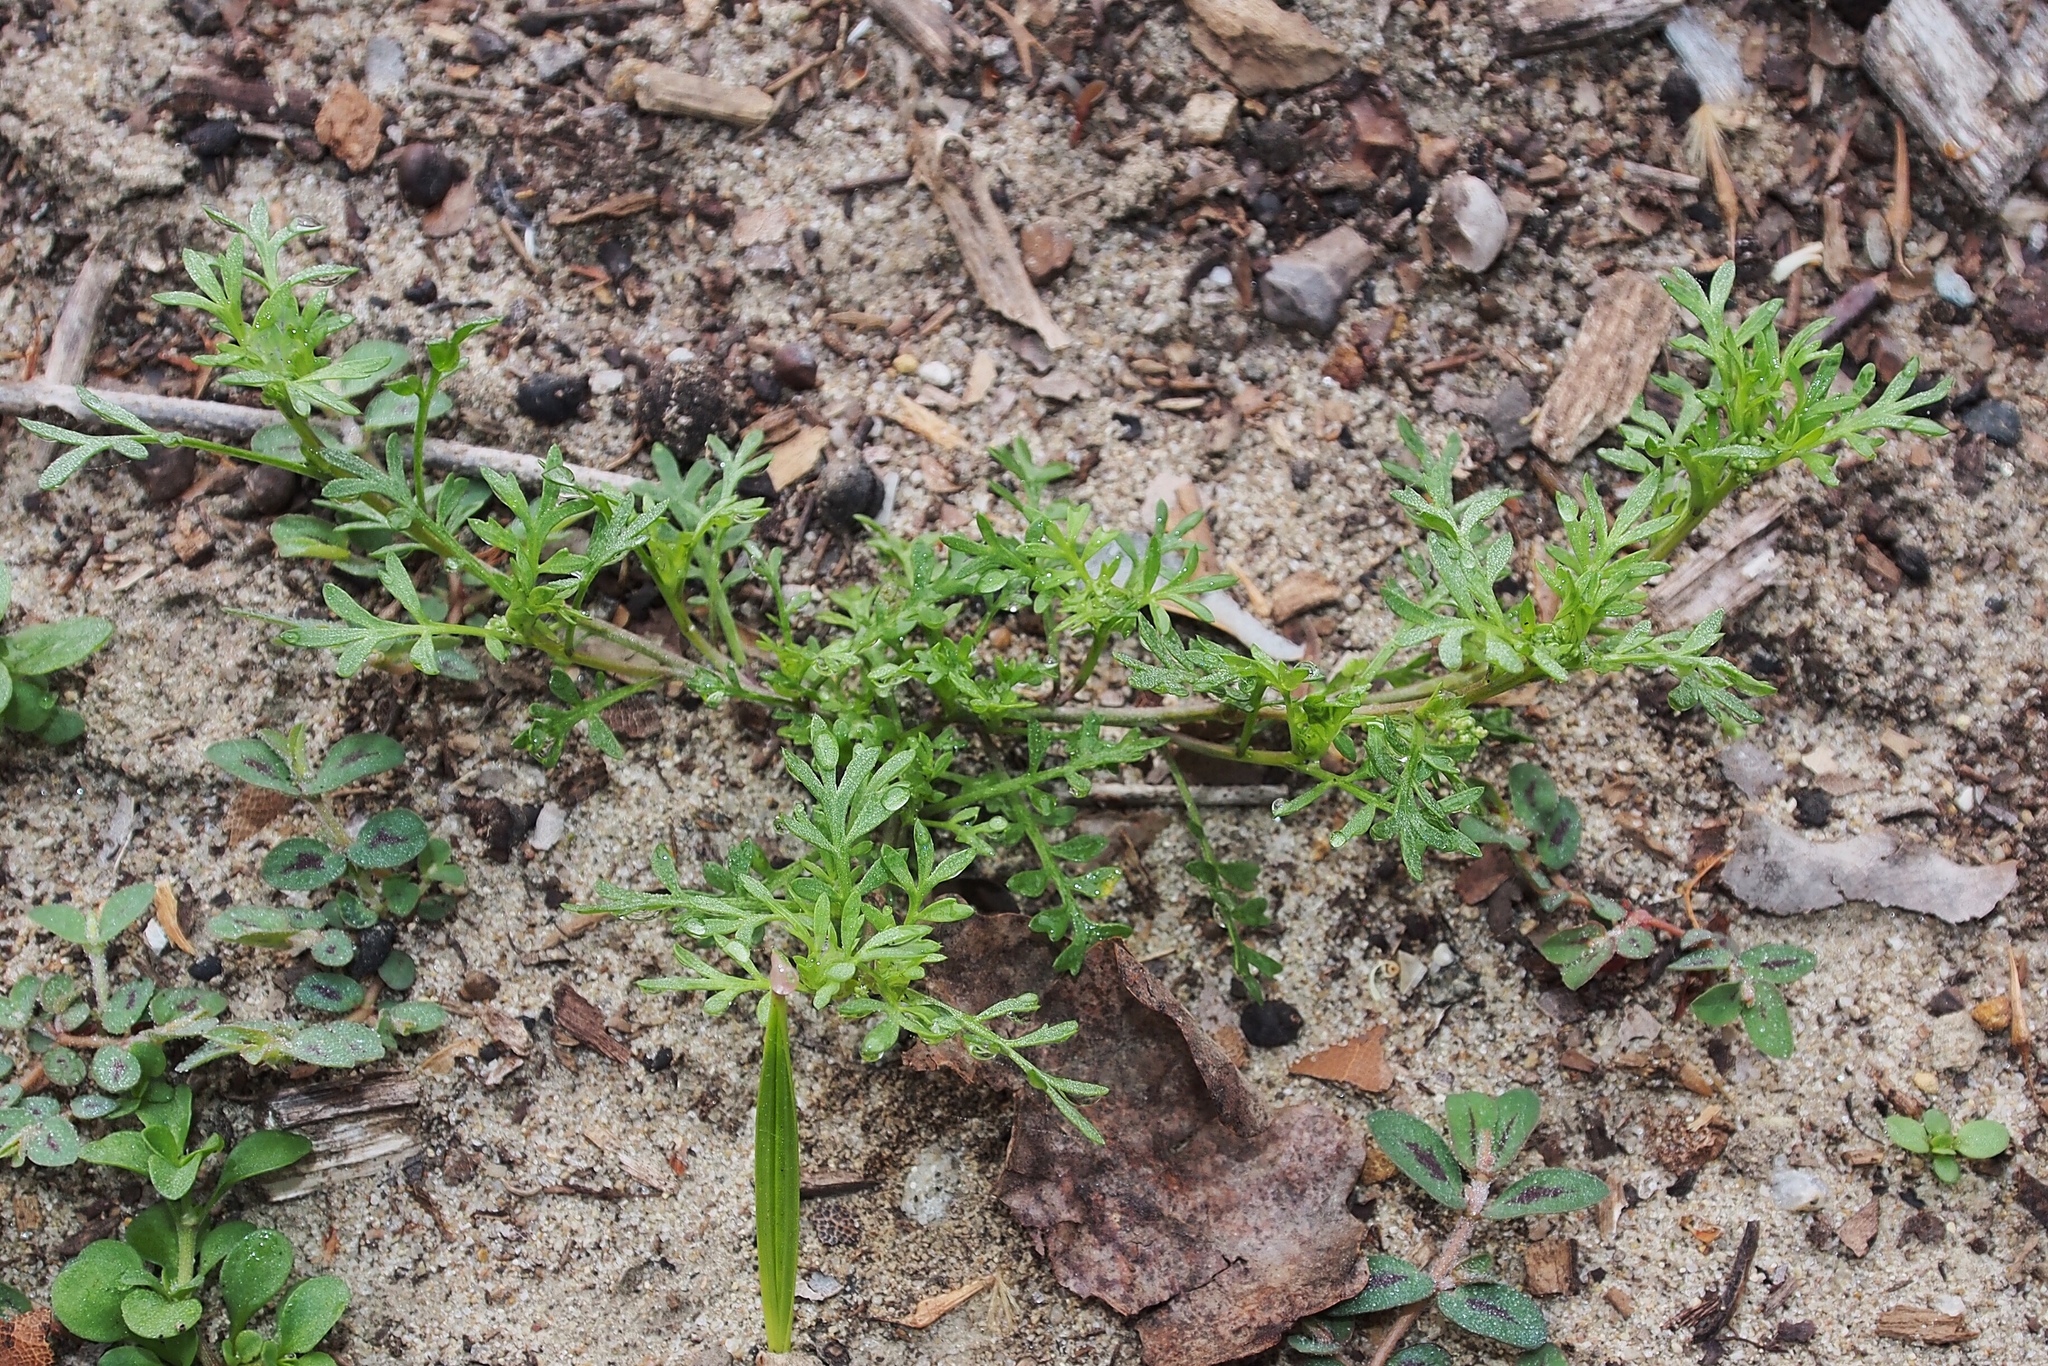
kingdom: Plantae
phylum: Tracheophyta
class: Magnoliopsida
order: Brassicales
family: Brassicaceae
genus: Lepidium
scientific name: Lepidium didymum
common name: Lesser swinecress
